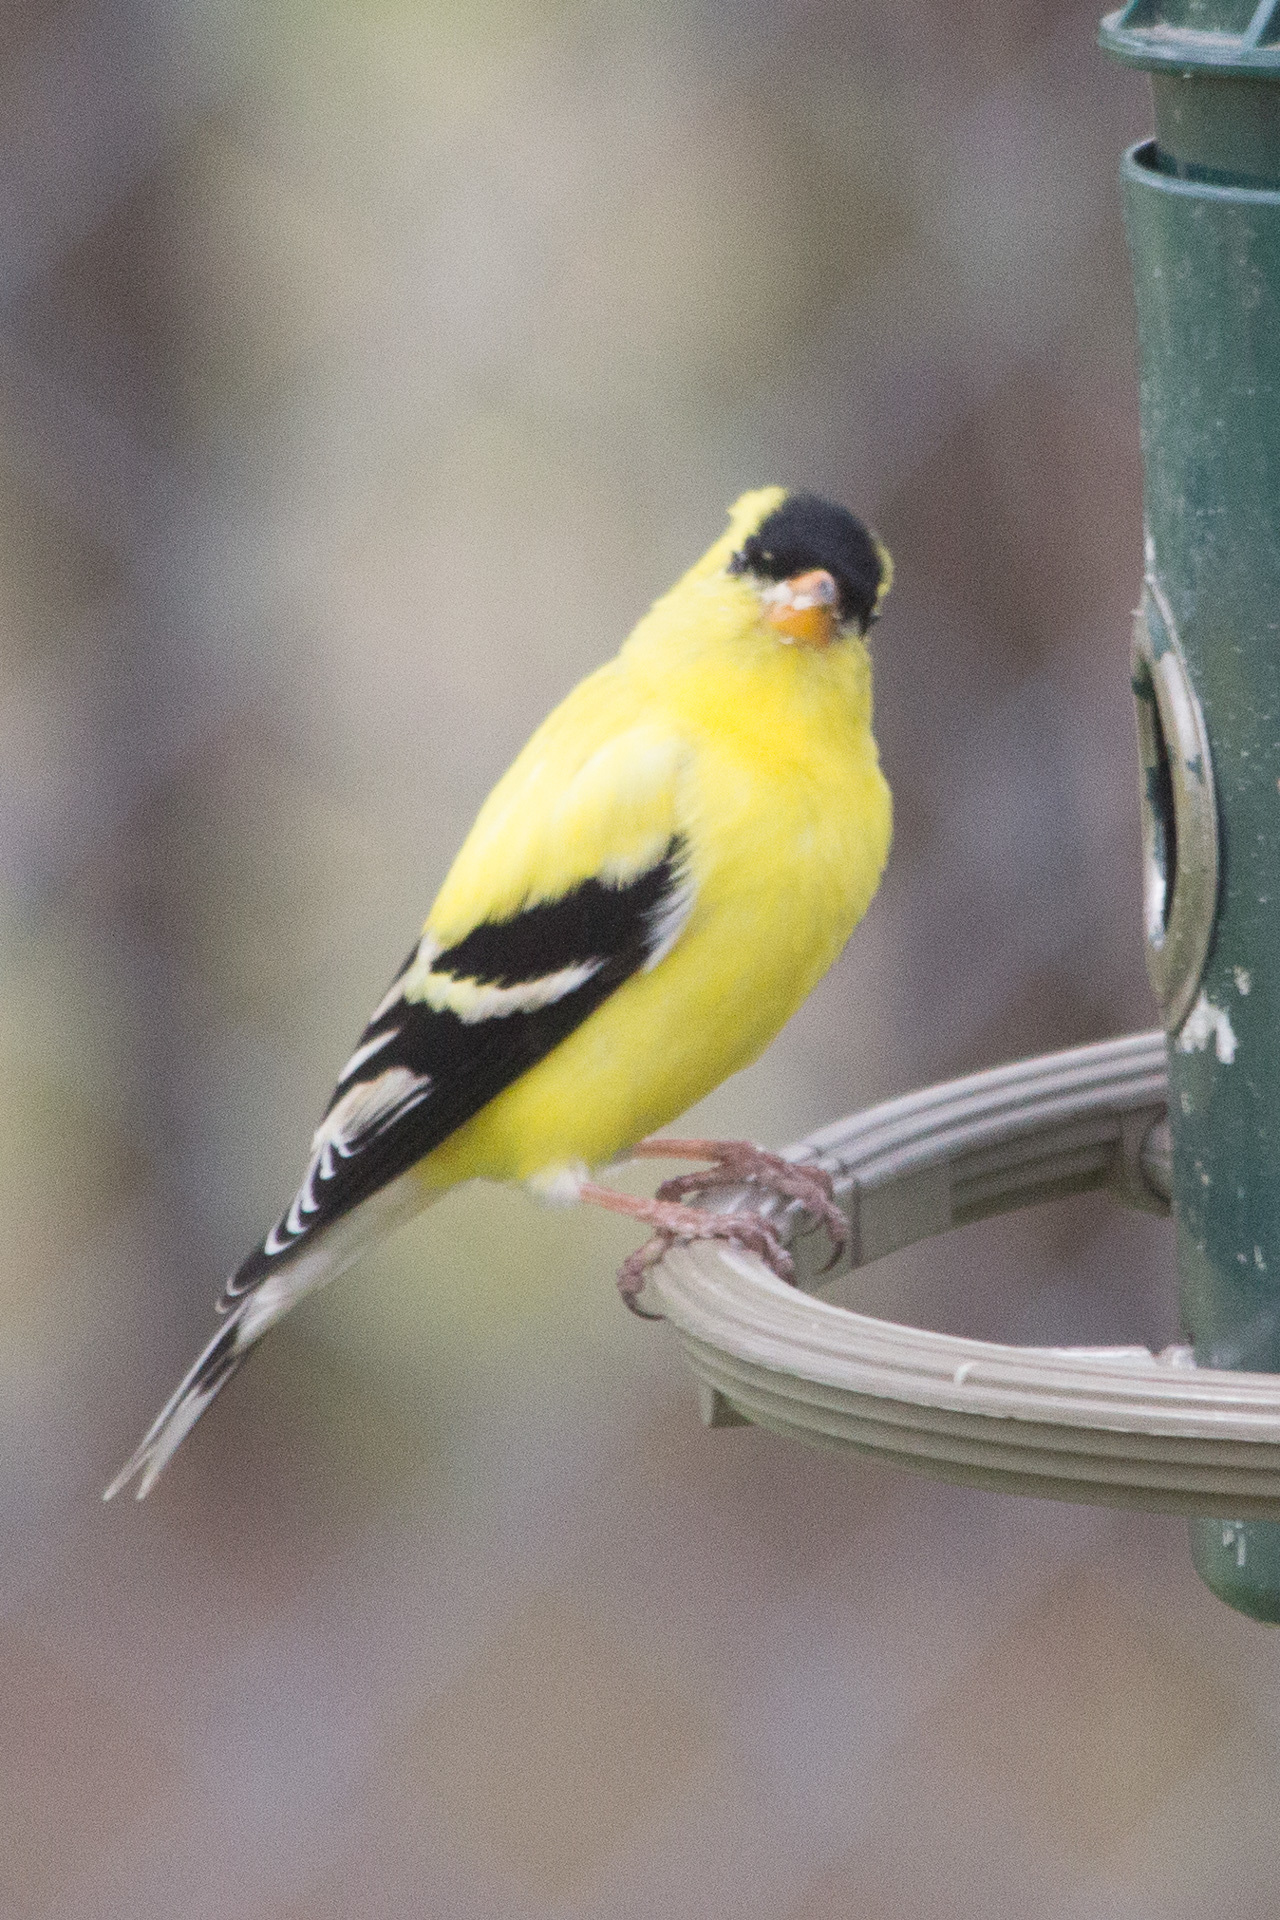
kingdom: Animalia
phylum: Chordata
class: Aves
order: Passeriformes
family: Fringillidae
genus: Spinus
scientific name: Spinus tristis
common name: American goldfinch
